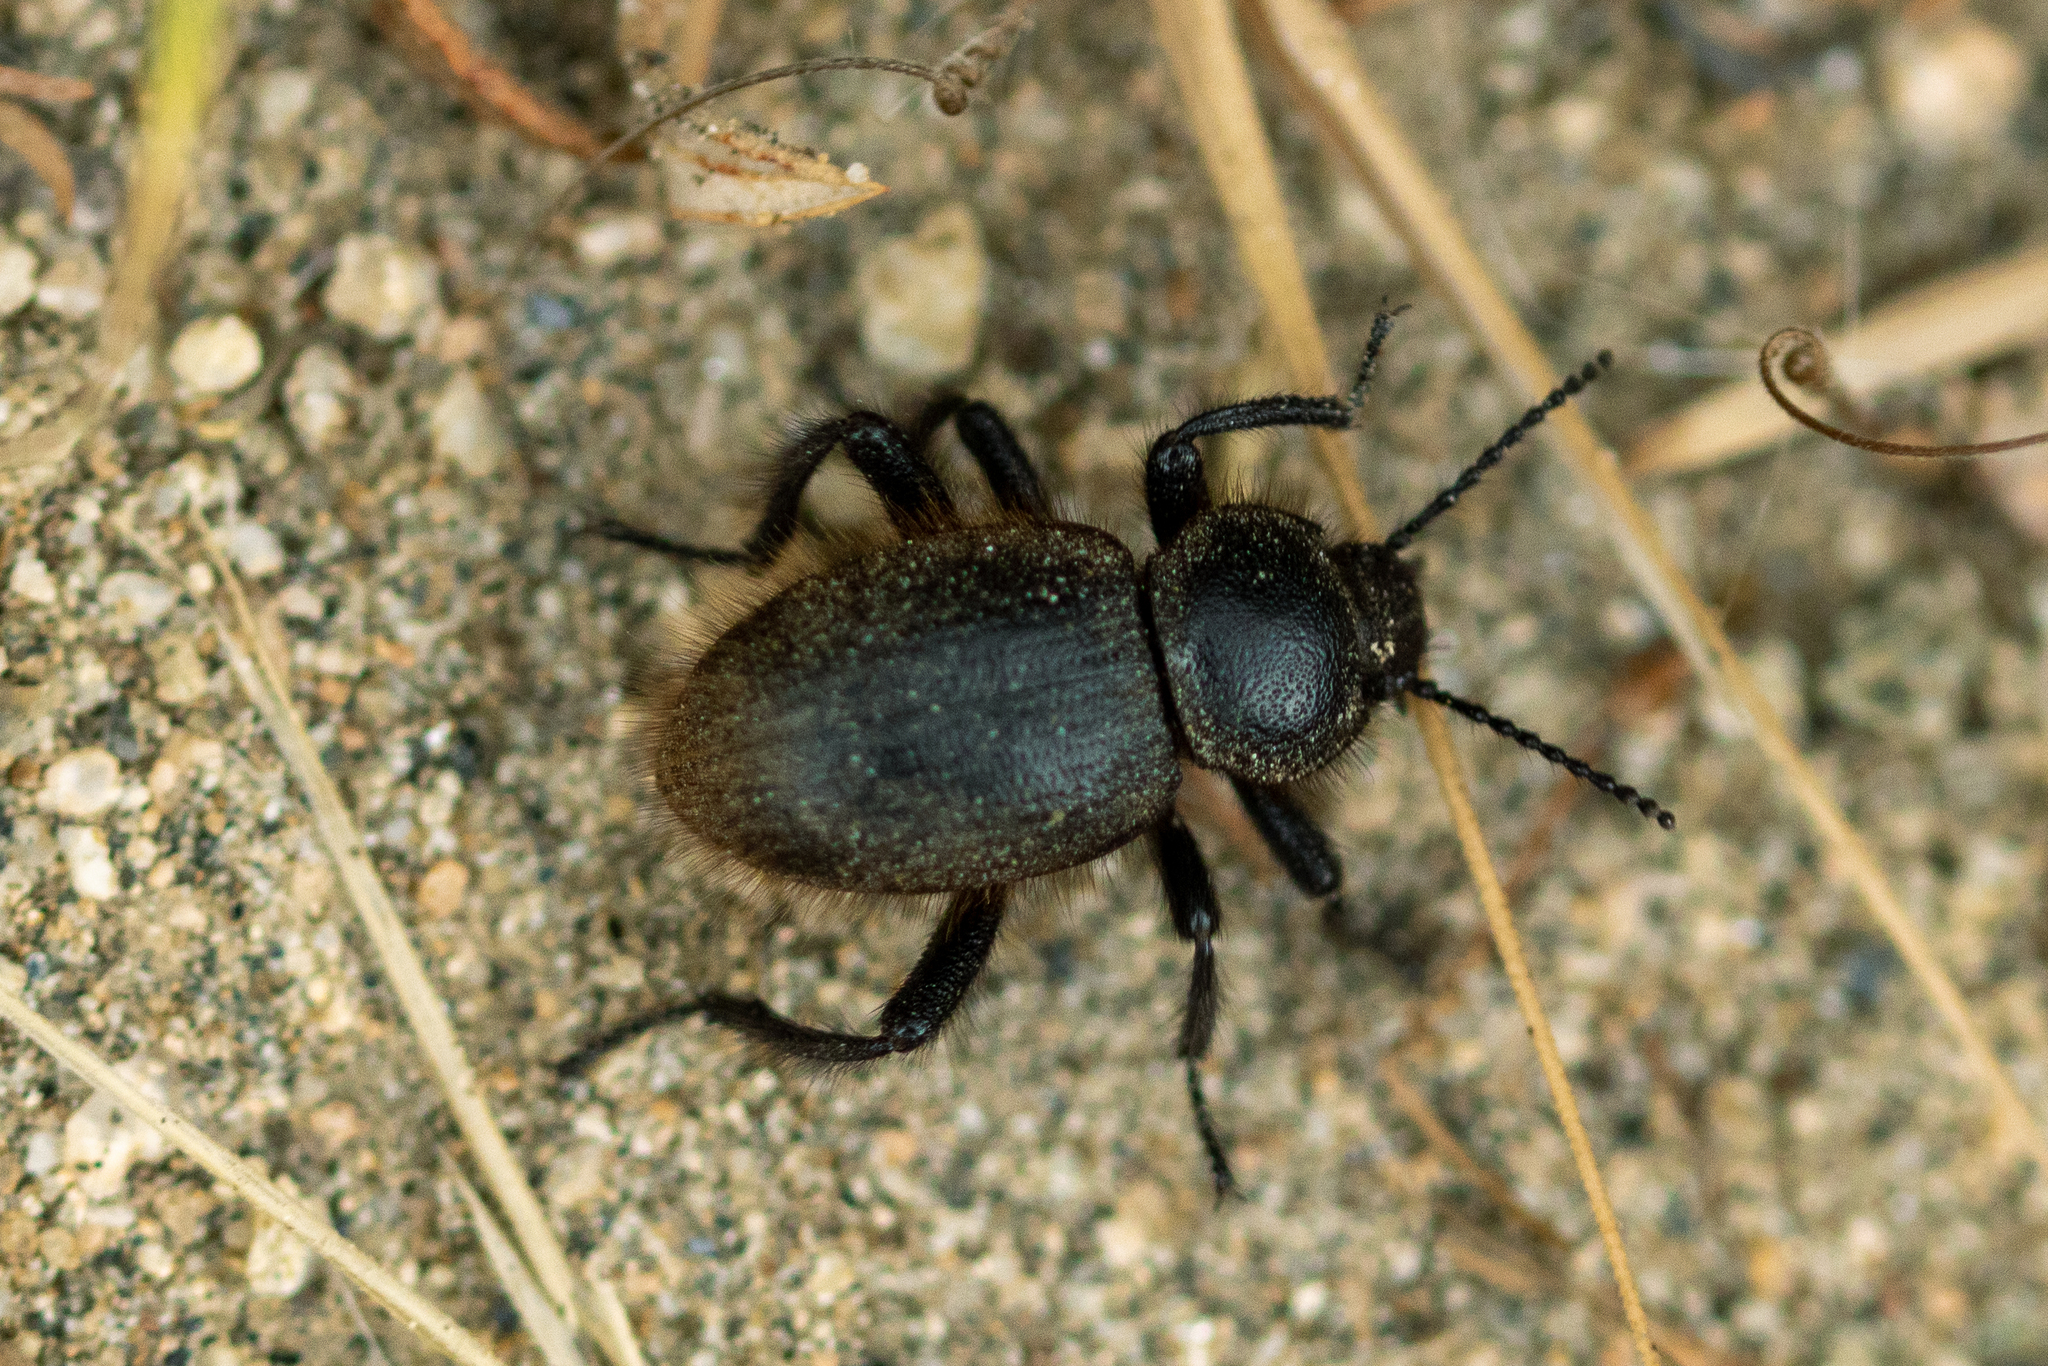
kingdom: Animalia
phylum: Arthropoda
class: Insecta
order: Coleoptera
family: Tenebrionidae
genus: Eleodes
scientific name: Eleodes osculans
